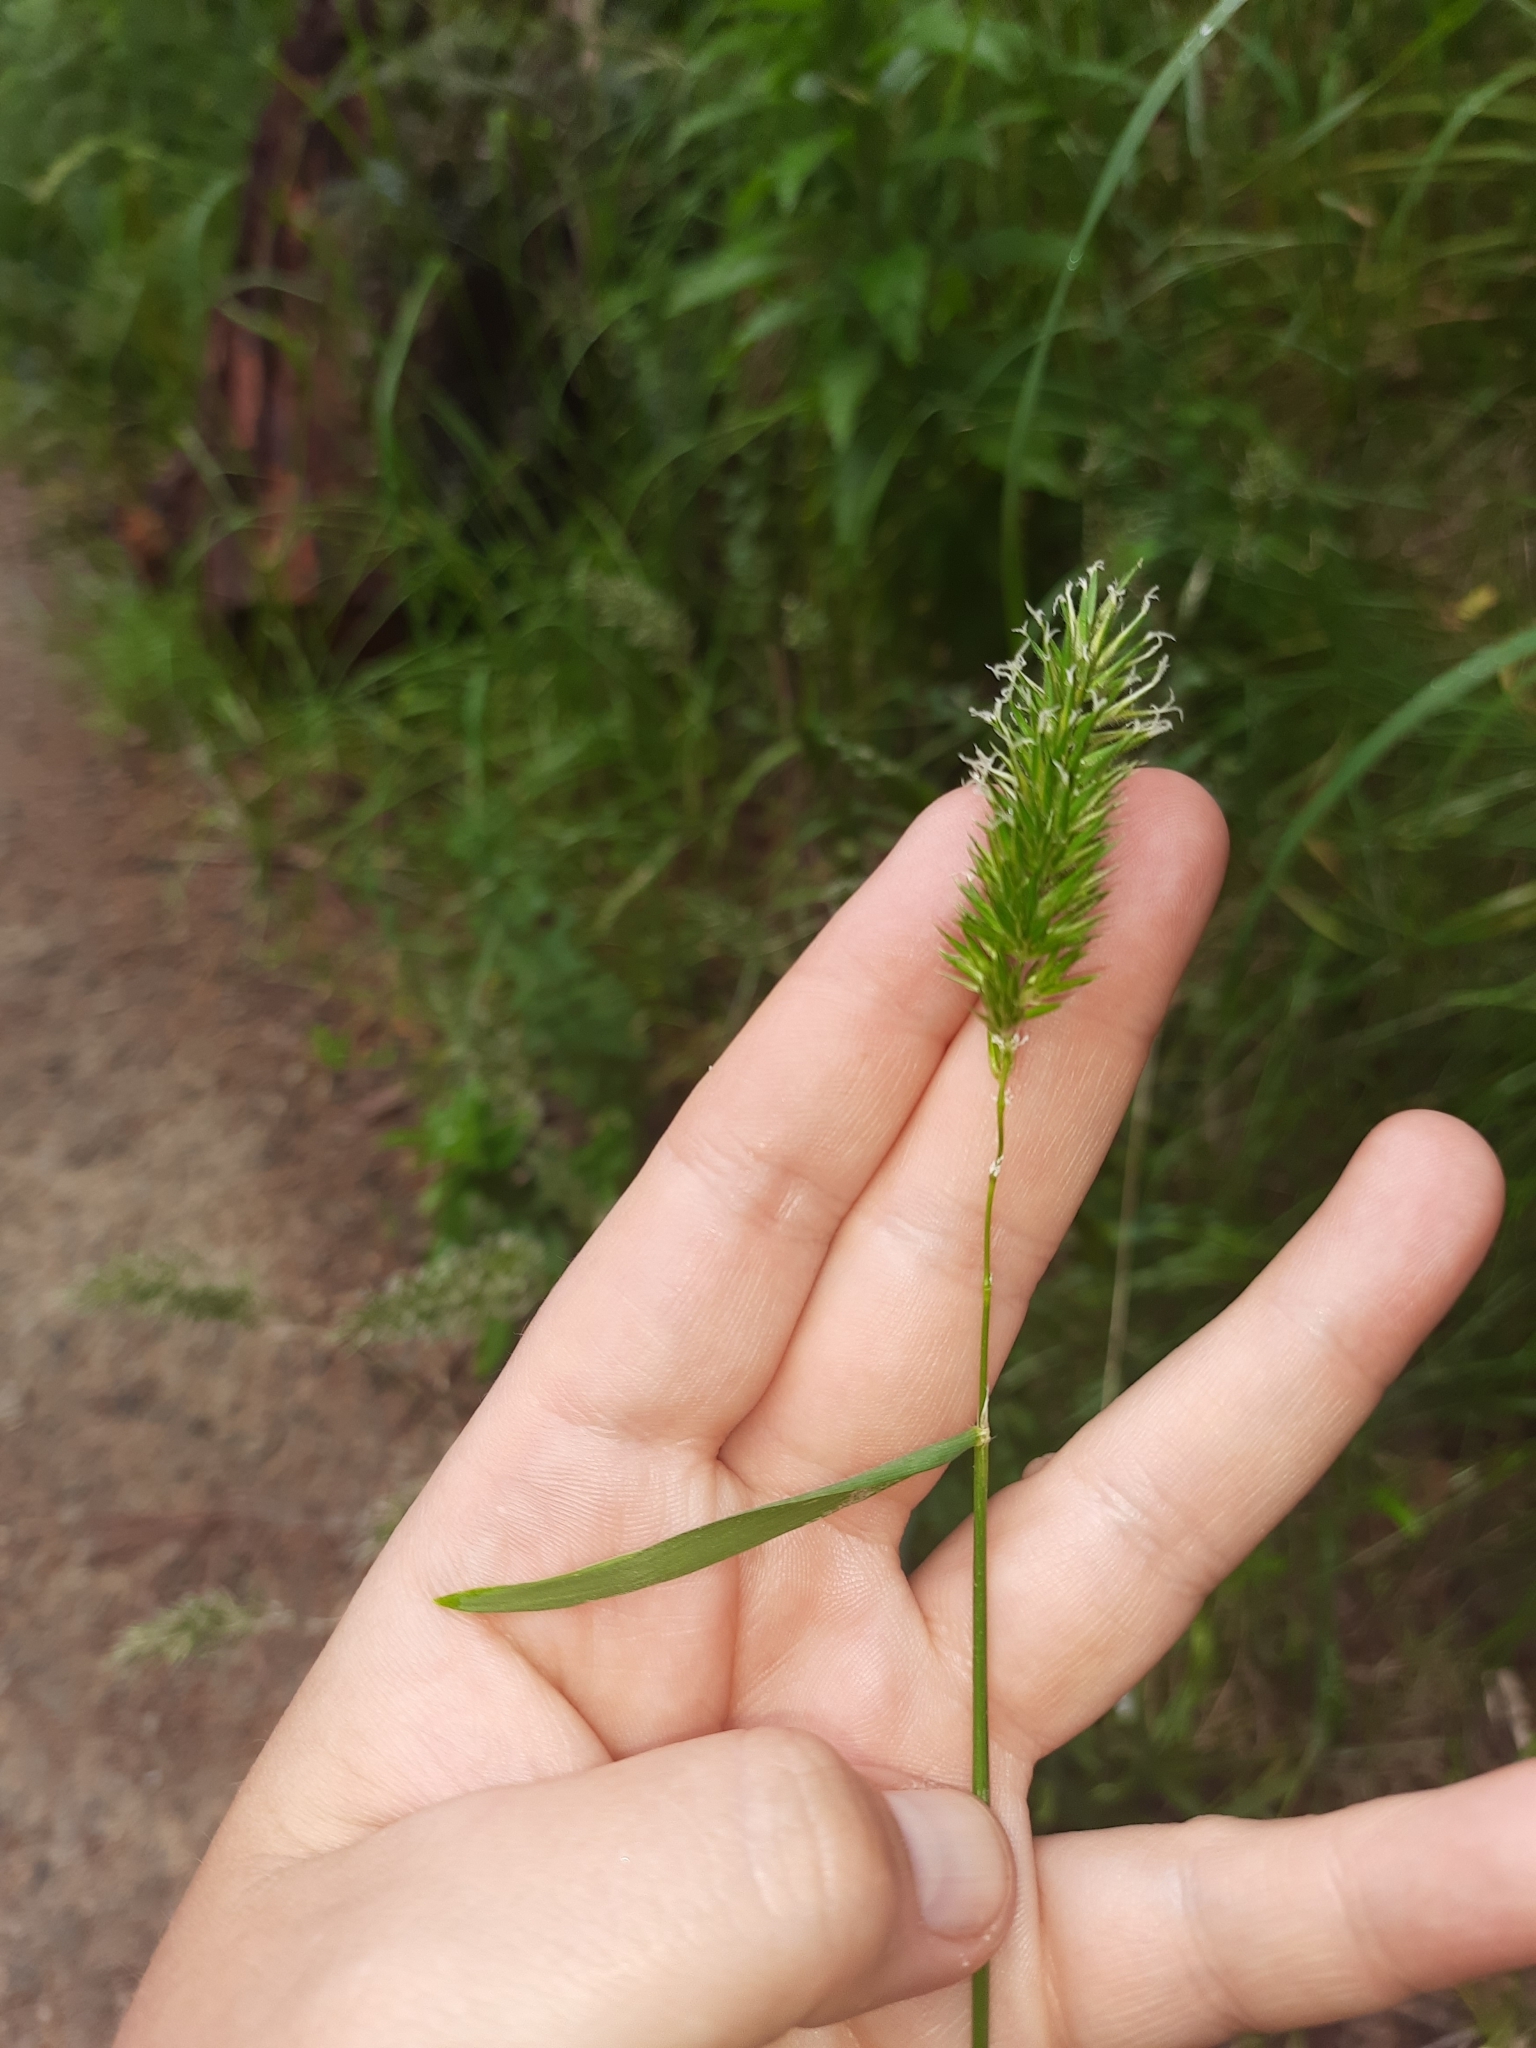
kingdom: Plantae
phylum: Tracheophyta
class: Liliopsida
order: Poales
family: Poaceae
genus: Anthoxanthum
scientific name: Anthoxanthum odoratum
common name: Sweet vernalgrass
